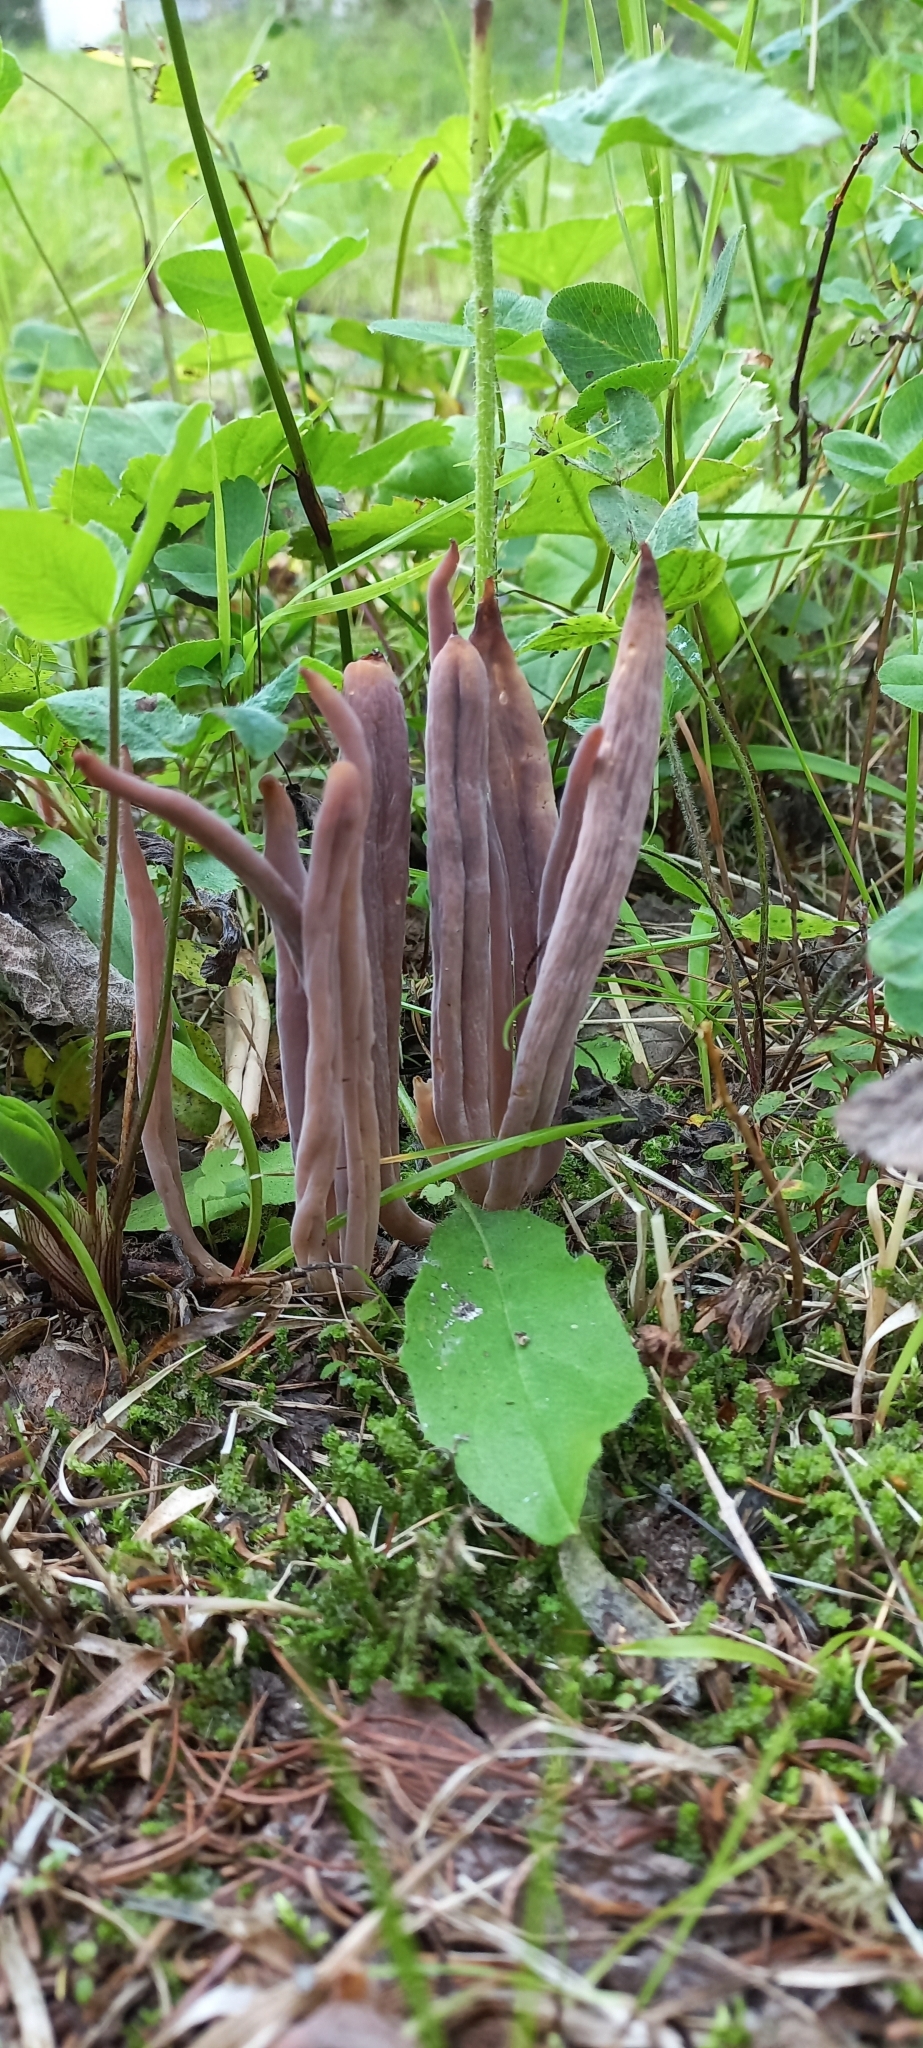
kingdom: Fungi
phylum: Basidiomycota
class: Agaricomycetes
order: Hymenochaetales
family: Rickenellaceae
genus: Alloclavaria
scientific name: Alloclavaria purpurea
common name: Purple spindles
